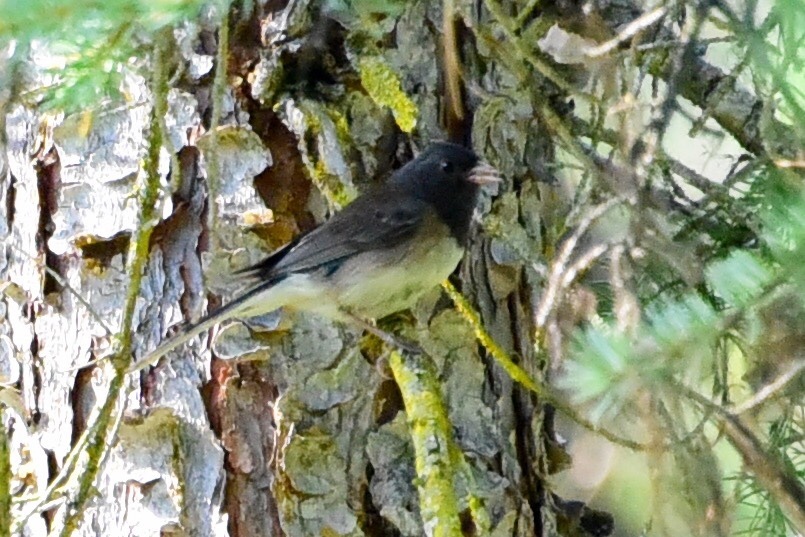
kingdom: Animalia
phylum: Chordata
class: Aves
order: Passeriformes
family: Passerellidae
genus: Junco
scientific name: Junco hyemalis
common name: Dark-eyed junco
